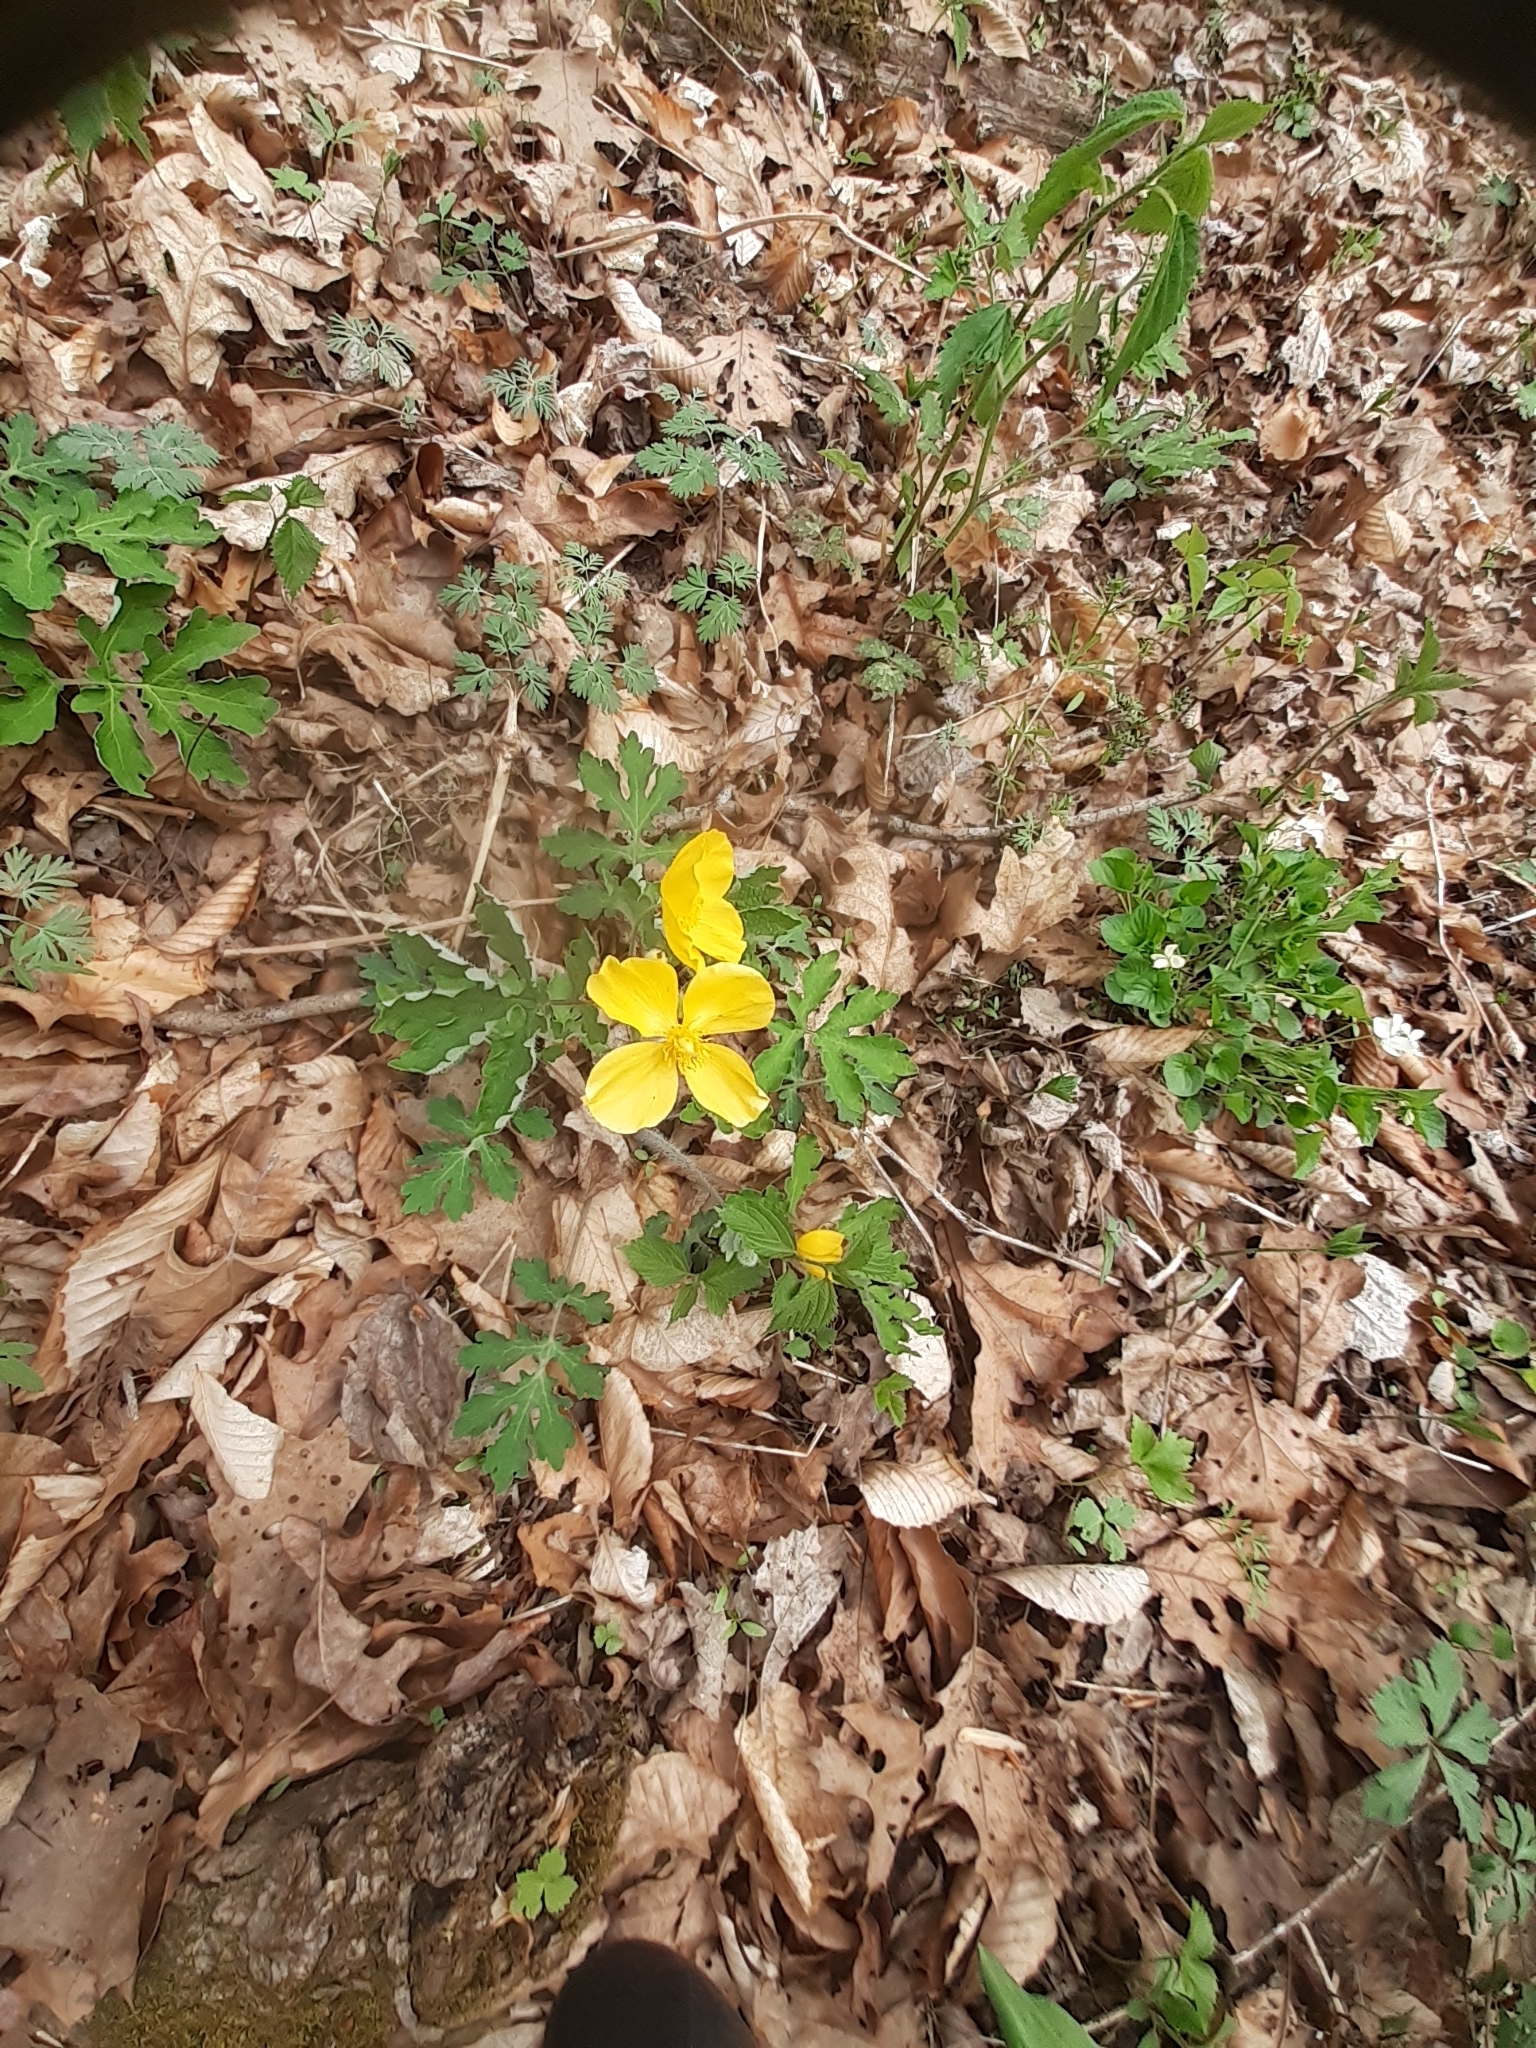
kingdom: Plantae
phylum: Tracheophyta
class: Magnoliopsida
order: Ranunculales
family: Papaveraceae
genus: Stylophorum
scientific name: Stylophorum diphyllum
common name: Celandine poppy
